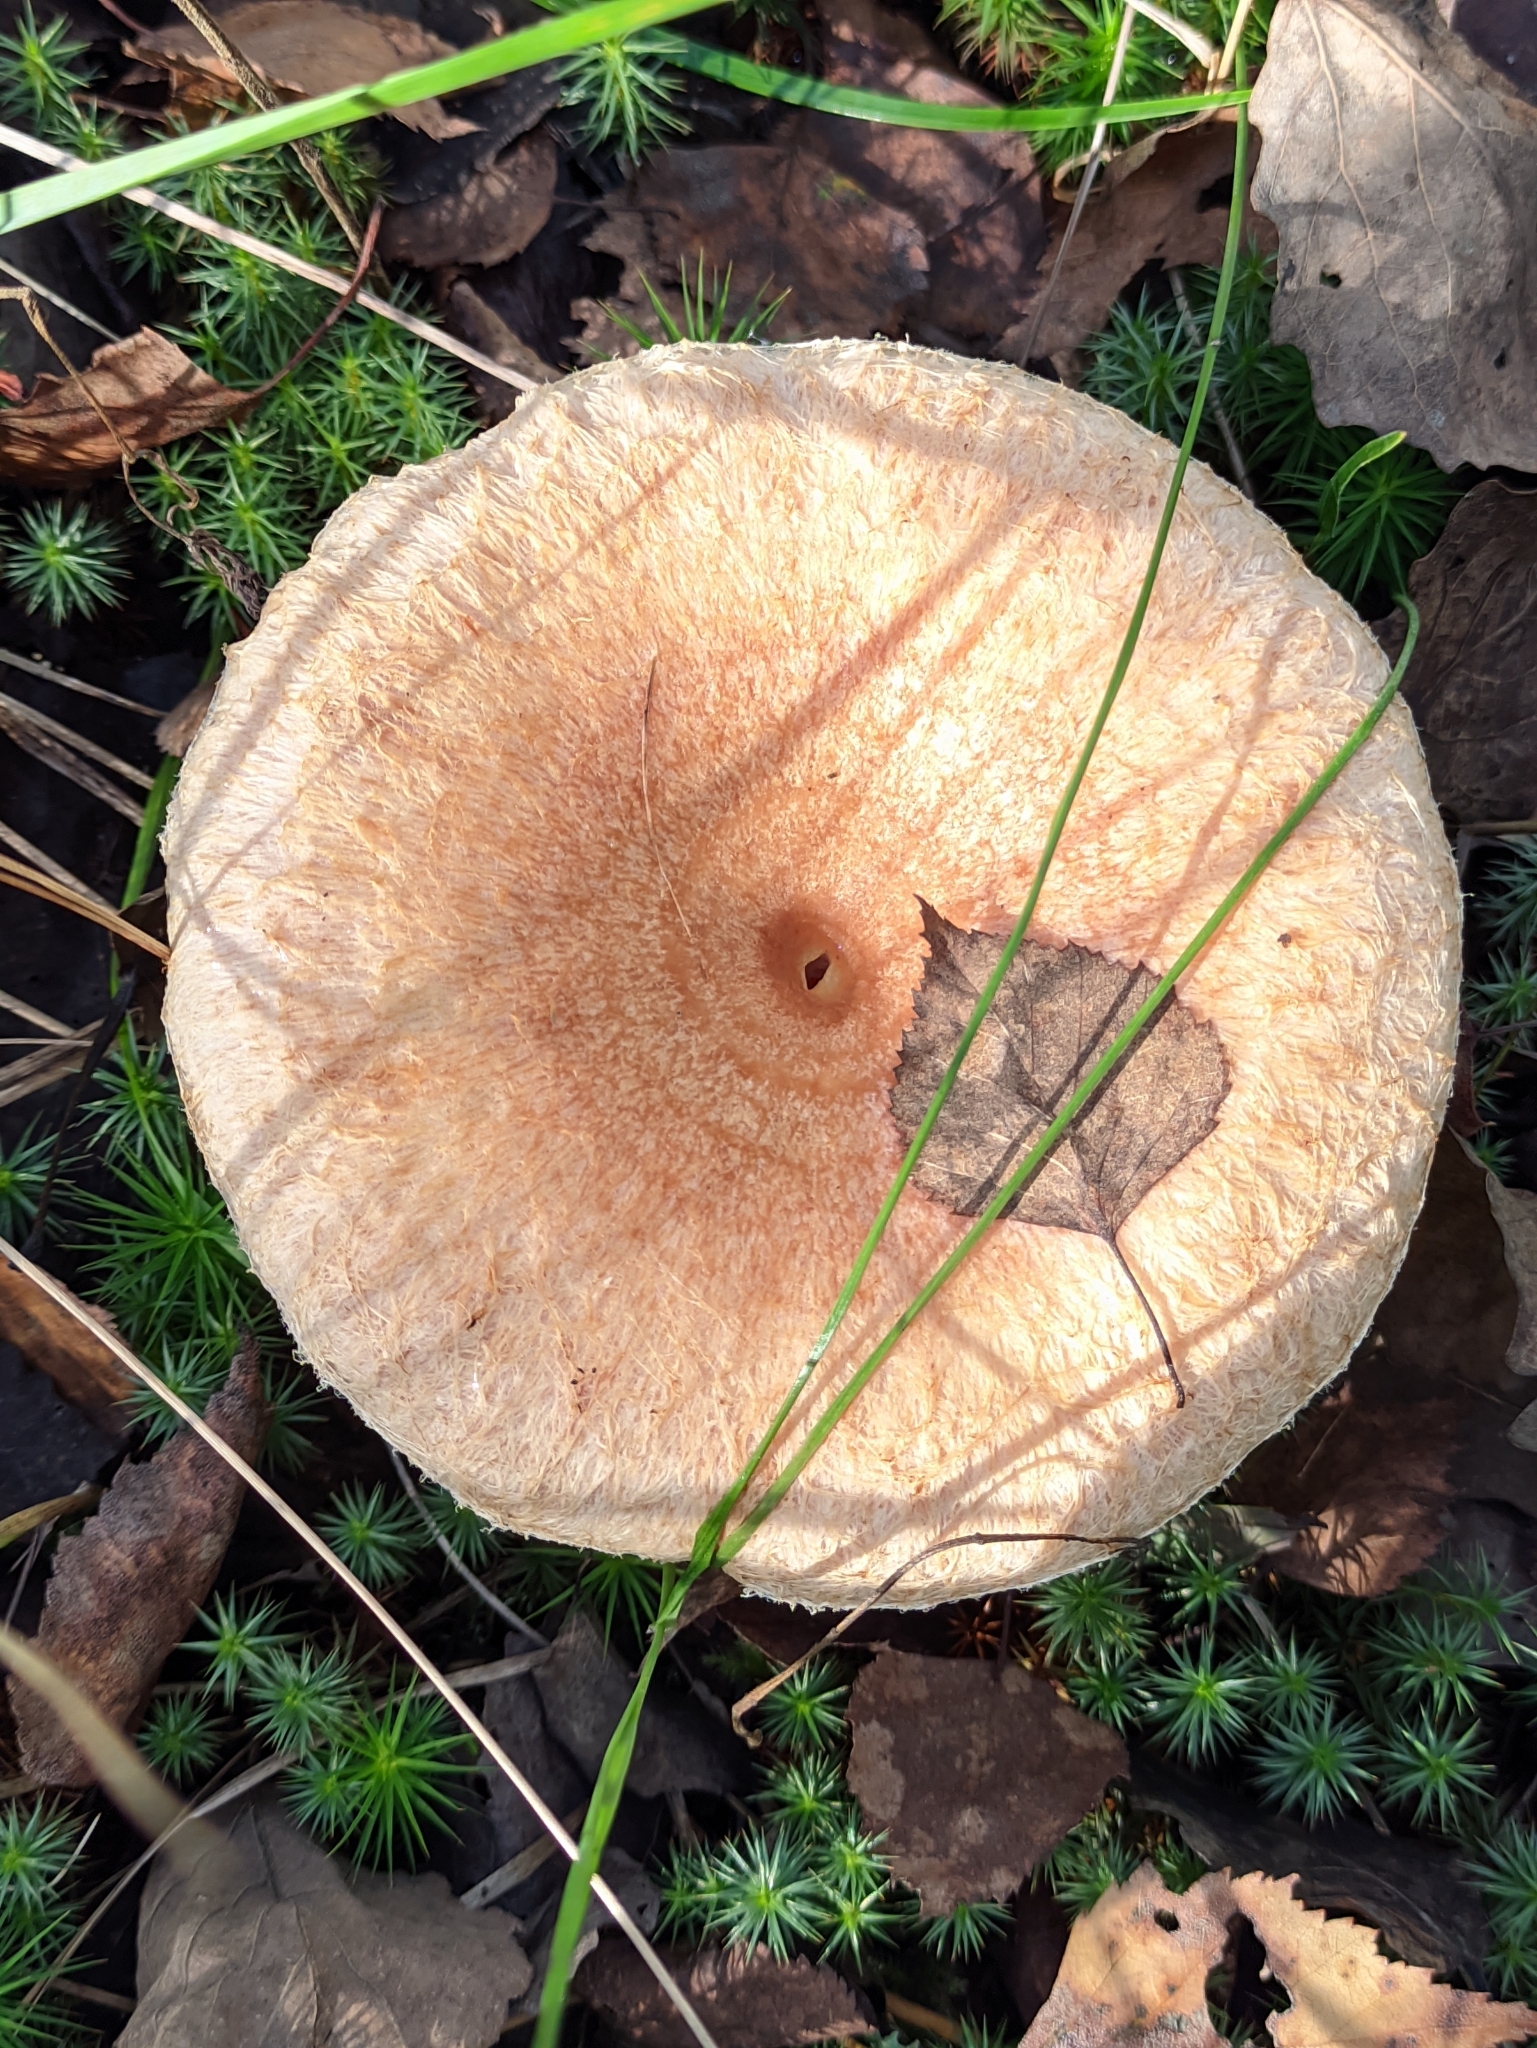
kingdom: Fungi
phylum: Basidiomycota
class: Agaricomycetes
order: Russulales
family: Russulaceae
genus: Lactarius
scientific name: Lactarius torminosus
